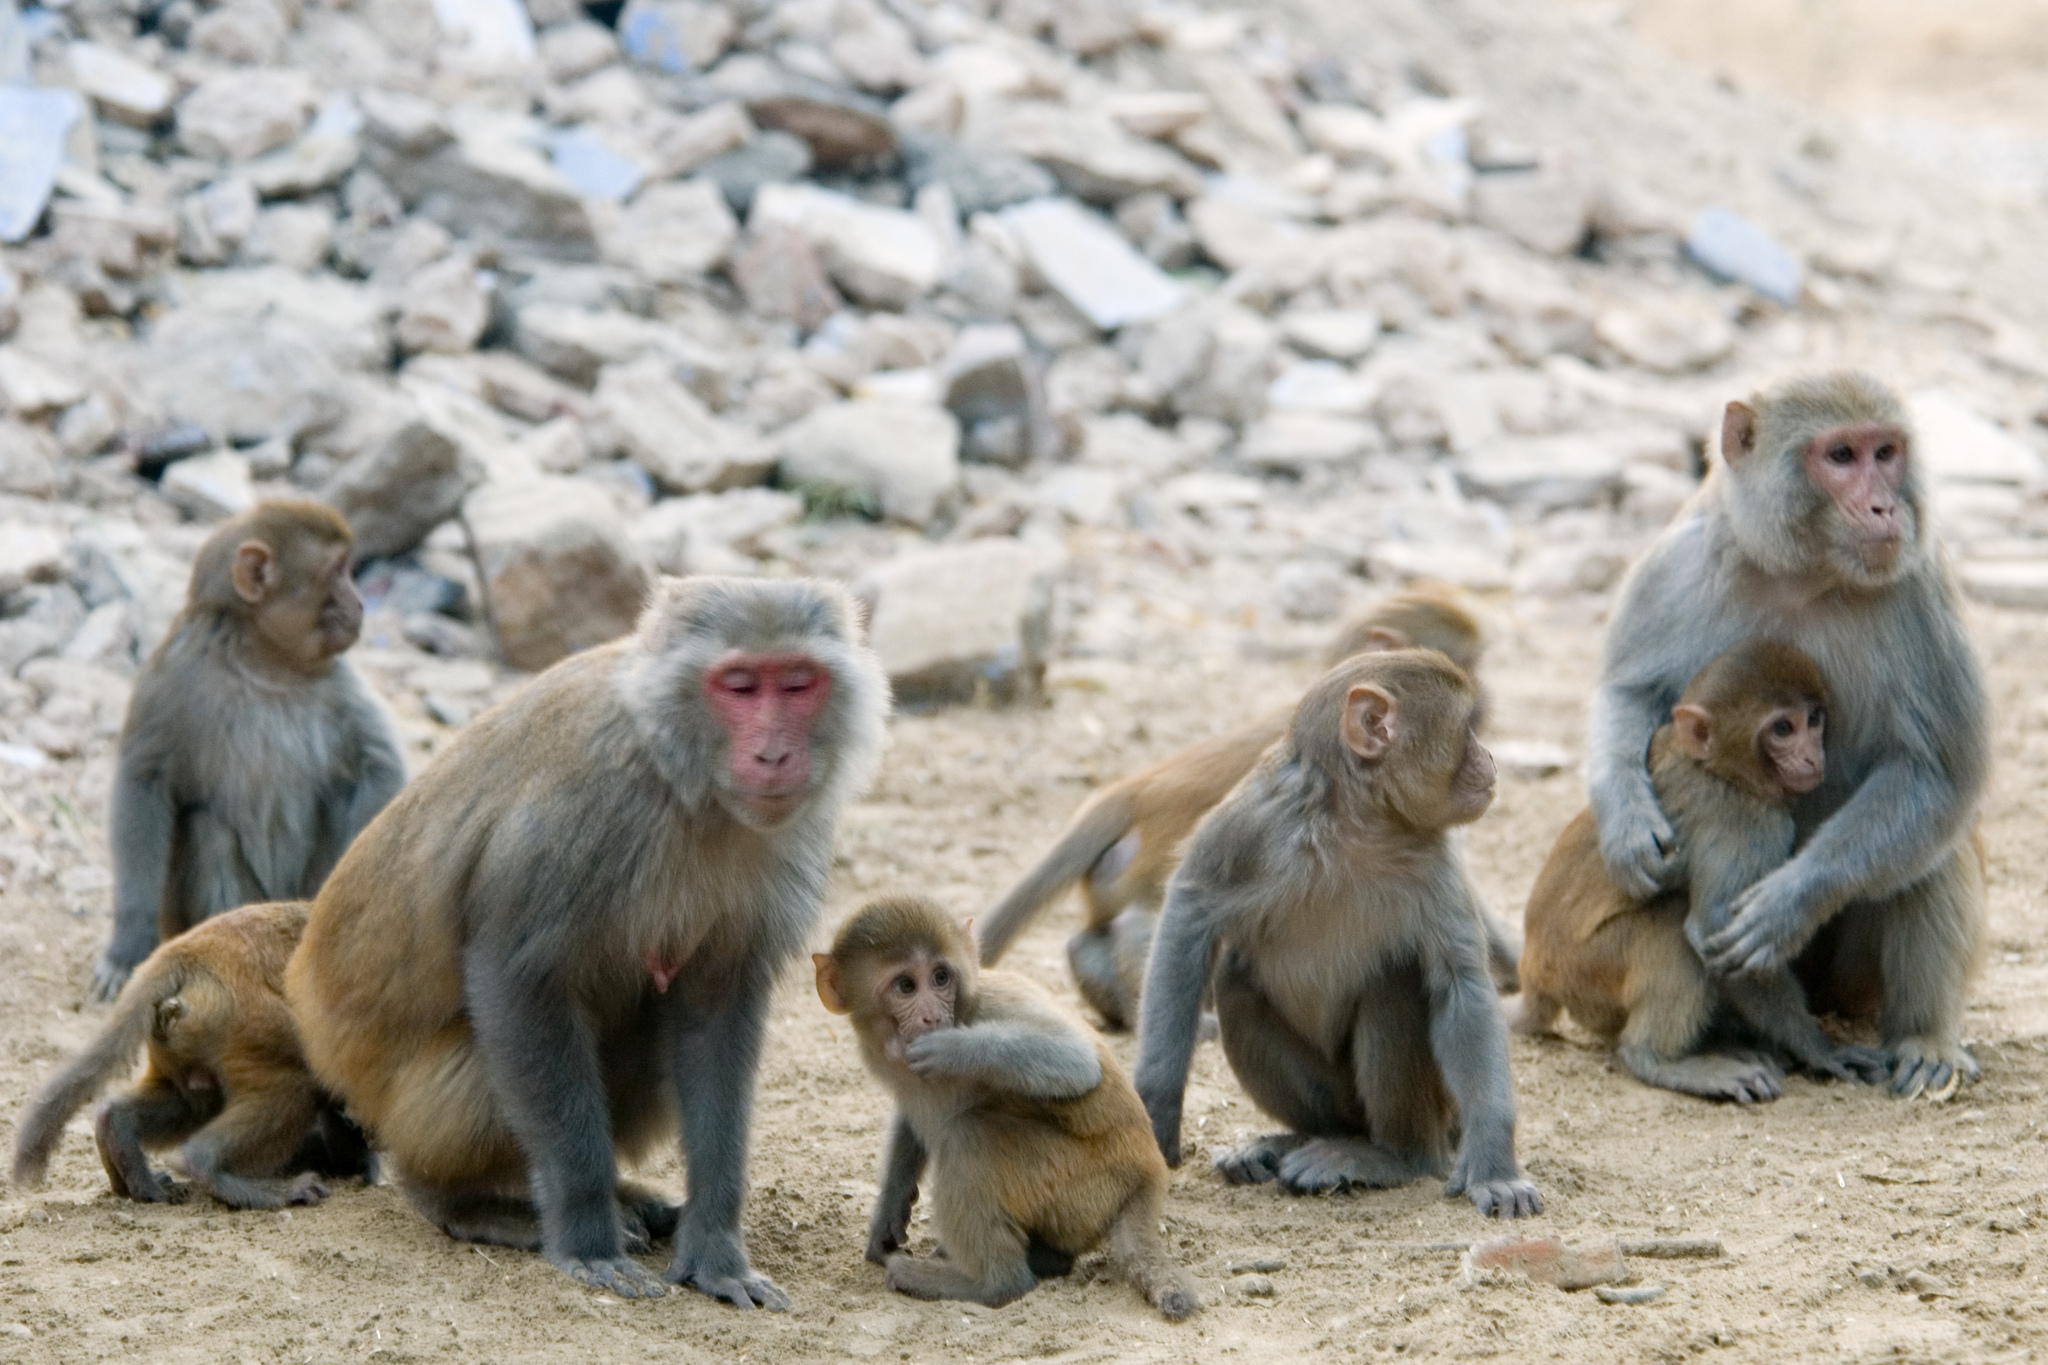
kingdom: Animalia
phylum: Chordata
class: Mammalia
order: Primates
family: Cercopithecidae
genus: Macaca
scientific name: Macaca mulatta
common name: Rhesus monkey
